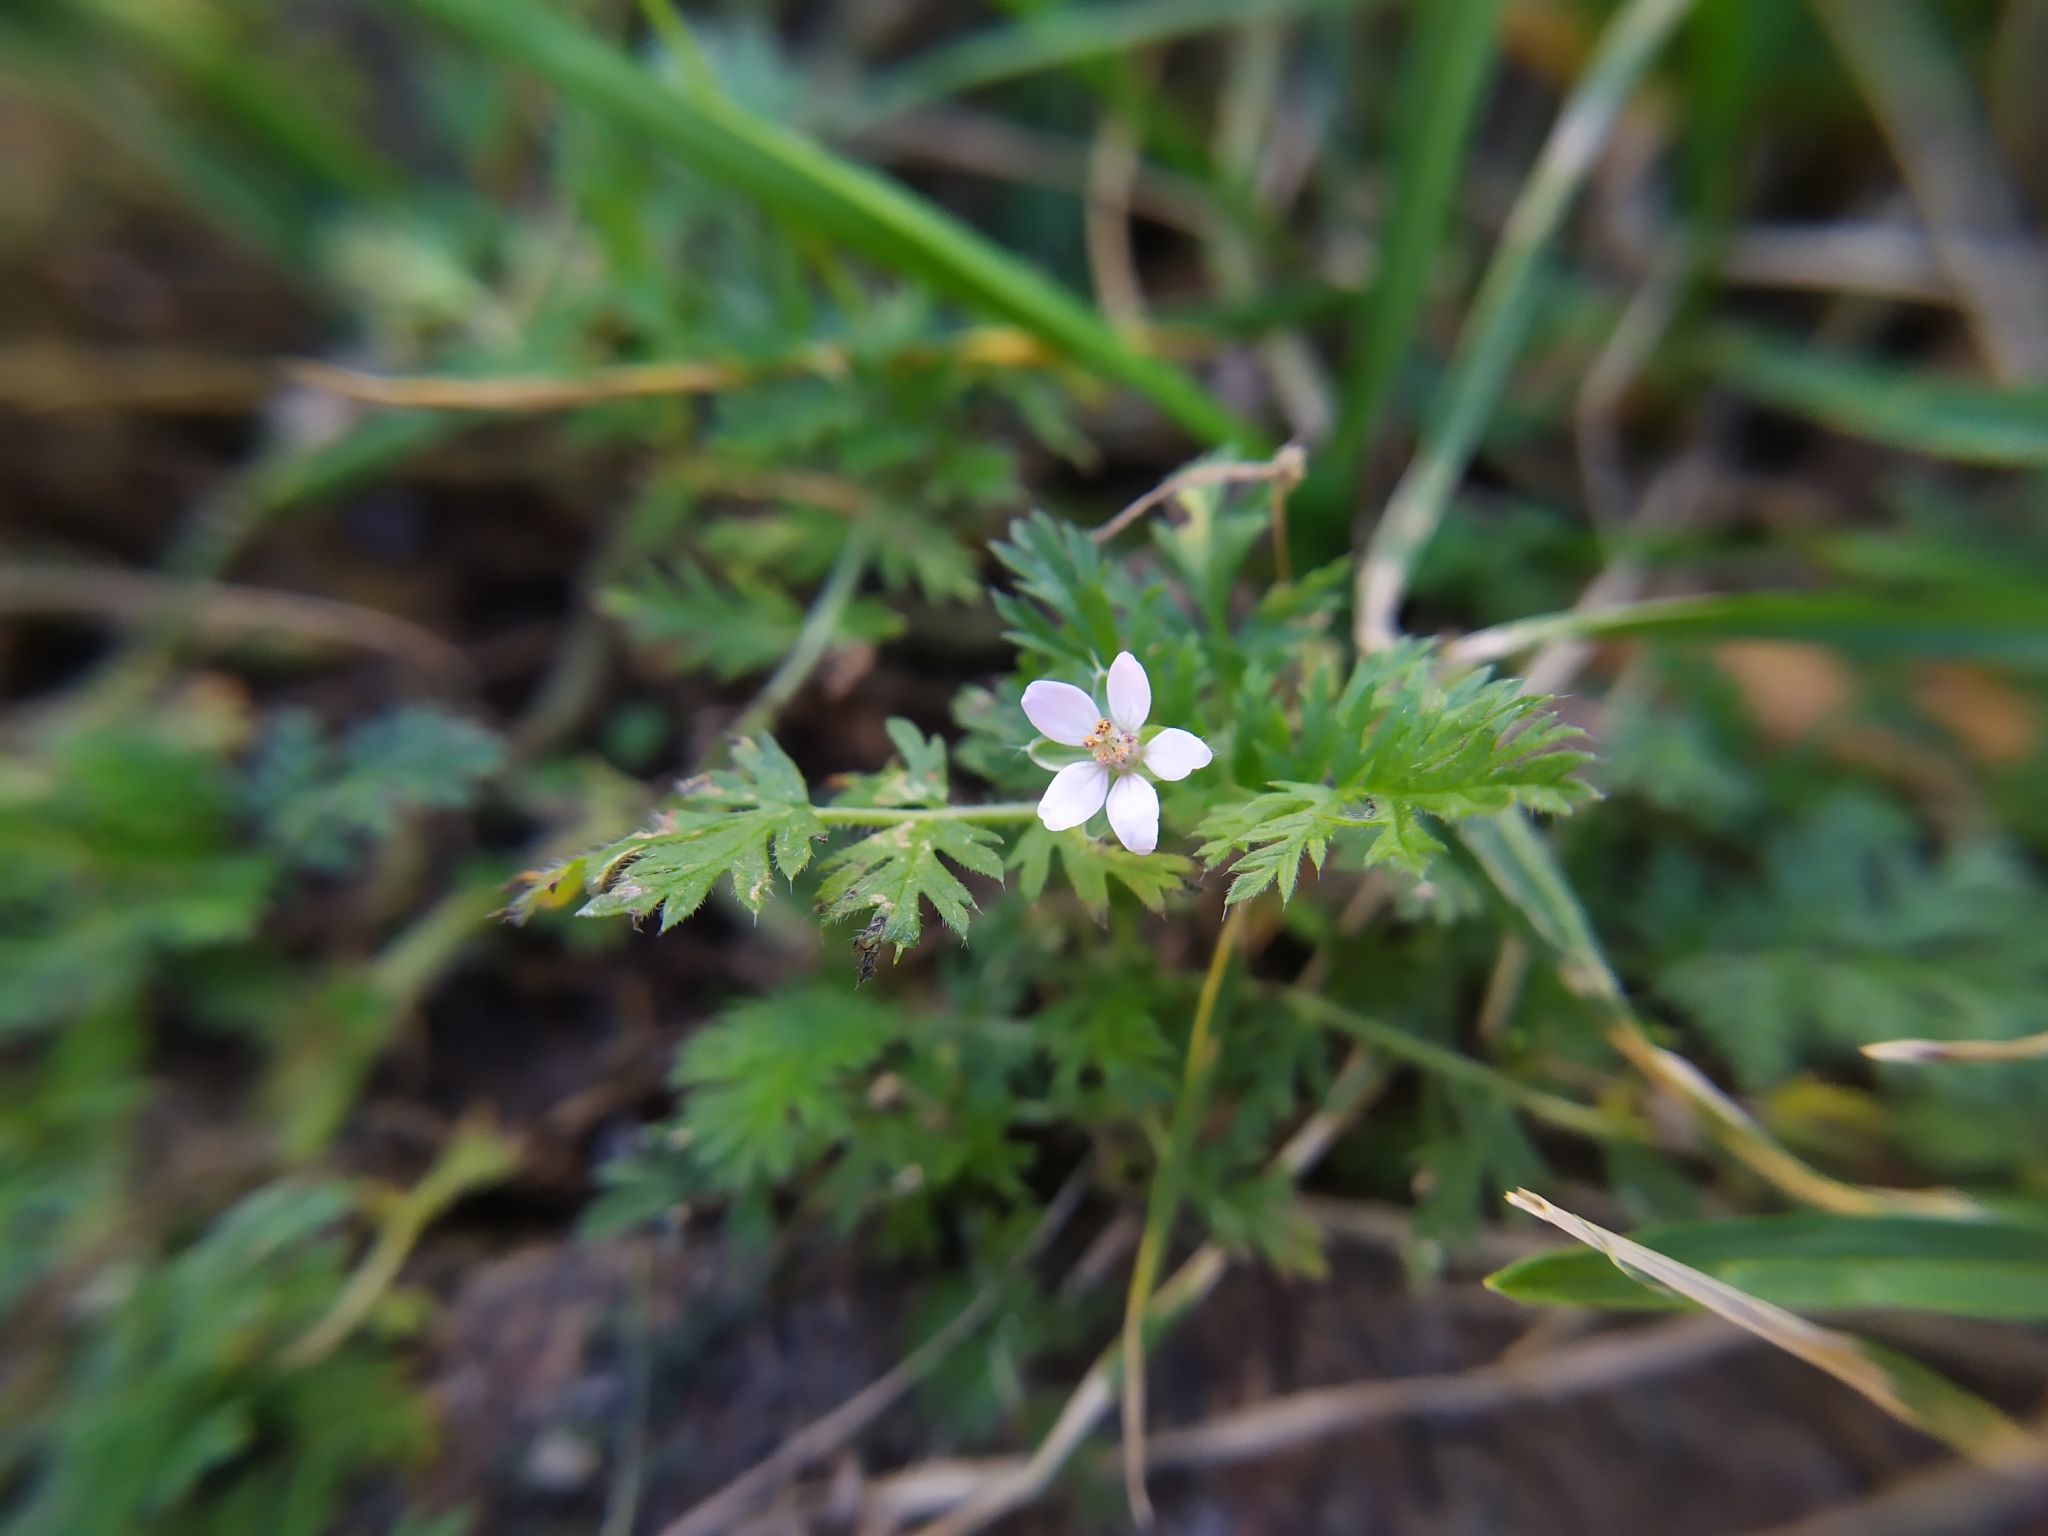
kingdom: Plantae
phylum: Tracheophyta
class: Magnoliopsida
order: Geraniales
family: Geraniaceae
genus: Erodium
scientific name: Erodium cicutarium
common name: Common stork's-bill
